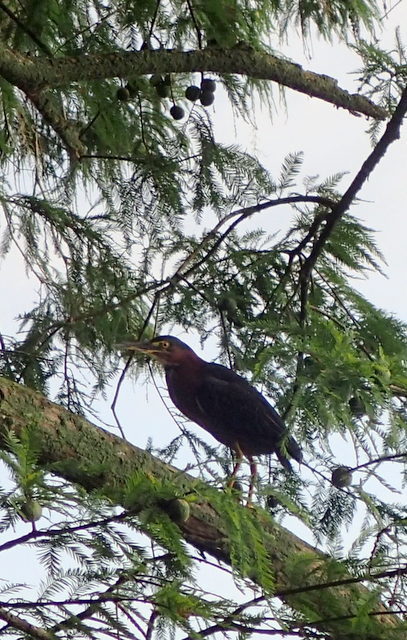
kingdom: Animalia
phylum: Chordata
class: Aves
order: Pelecaniformes
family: Ardeidae
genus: Butorides
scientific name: Butorides virescens
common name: Green heron
